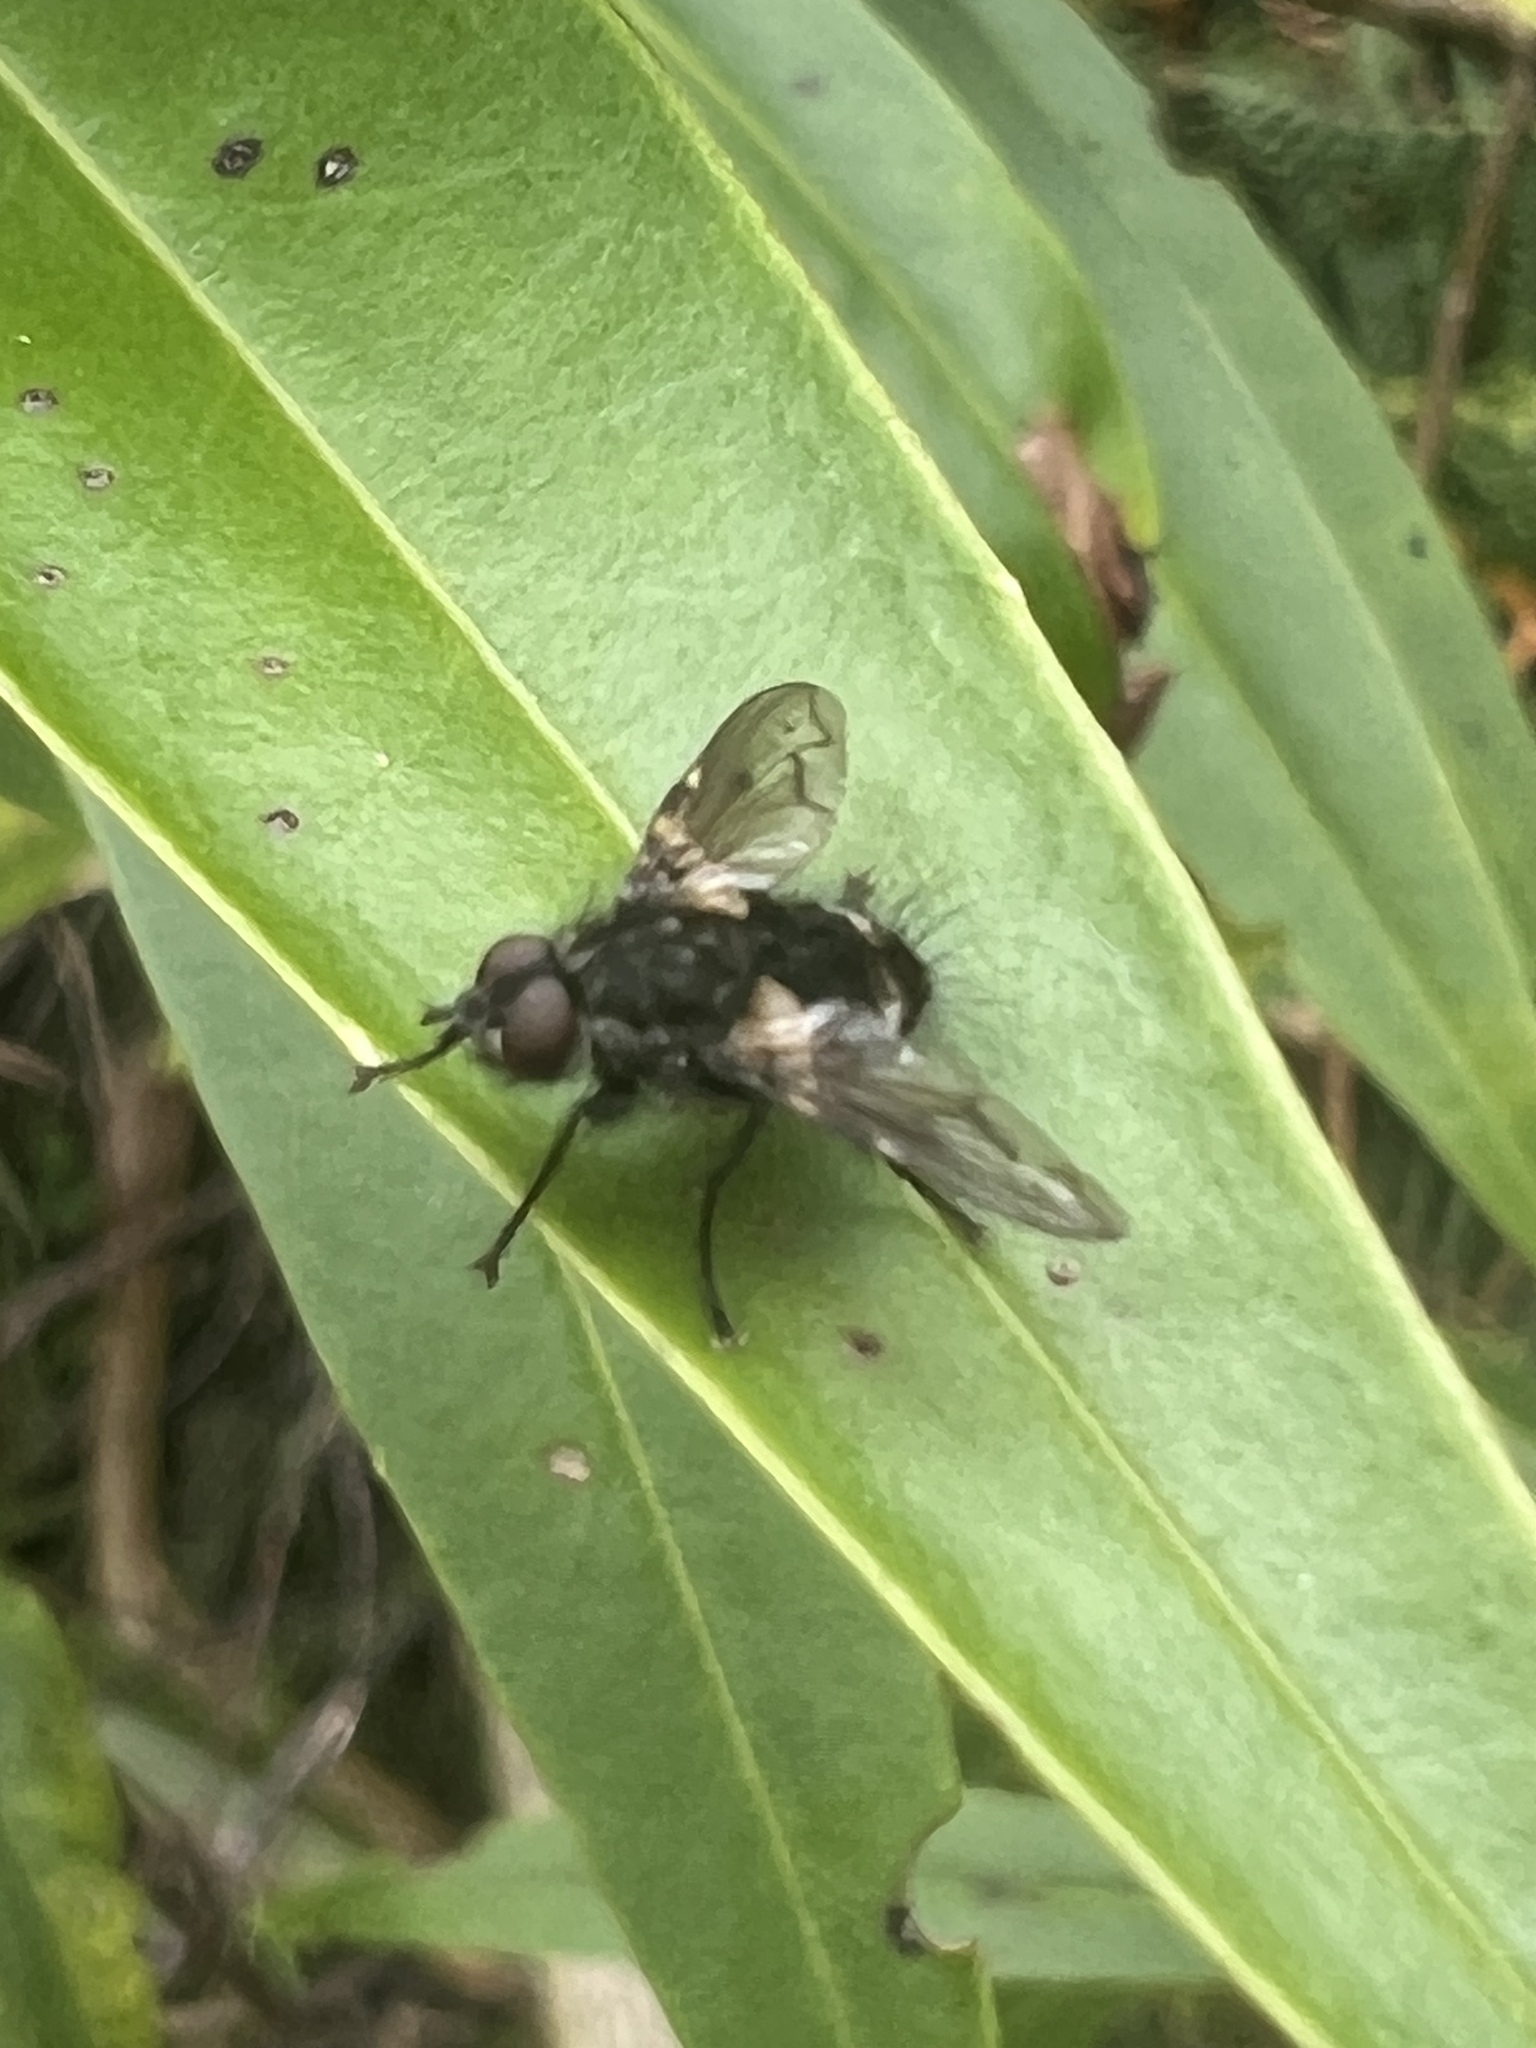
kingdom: Animalia
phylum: Arthropoda
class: Insecta
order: Diptera
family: Tachinidae
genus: Mallochomacquartia
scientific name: Mallochomacquartia vexata
